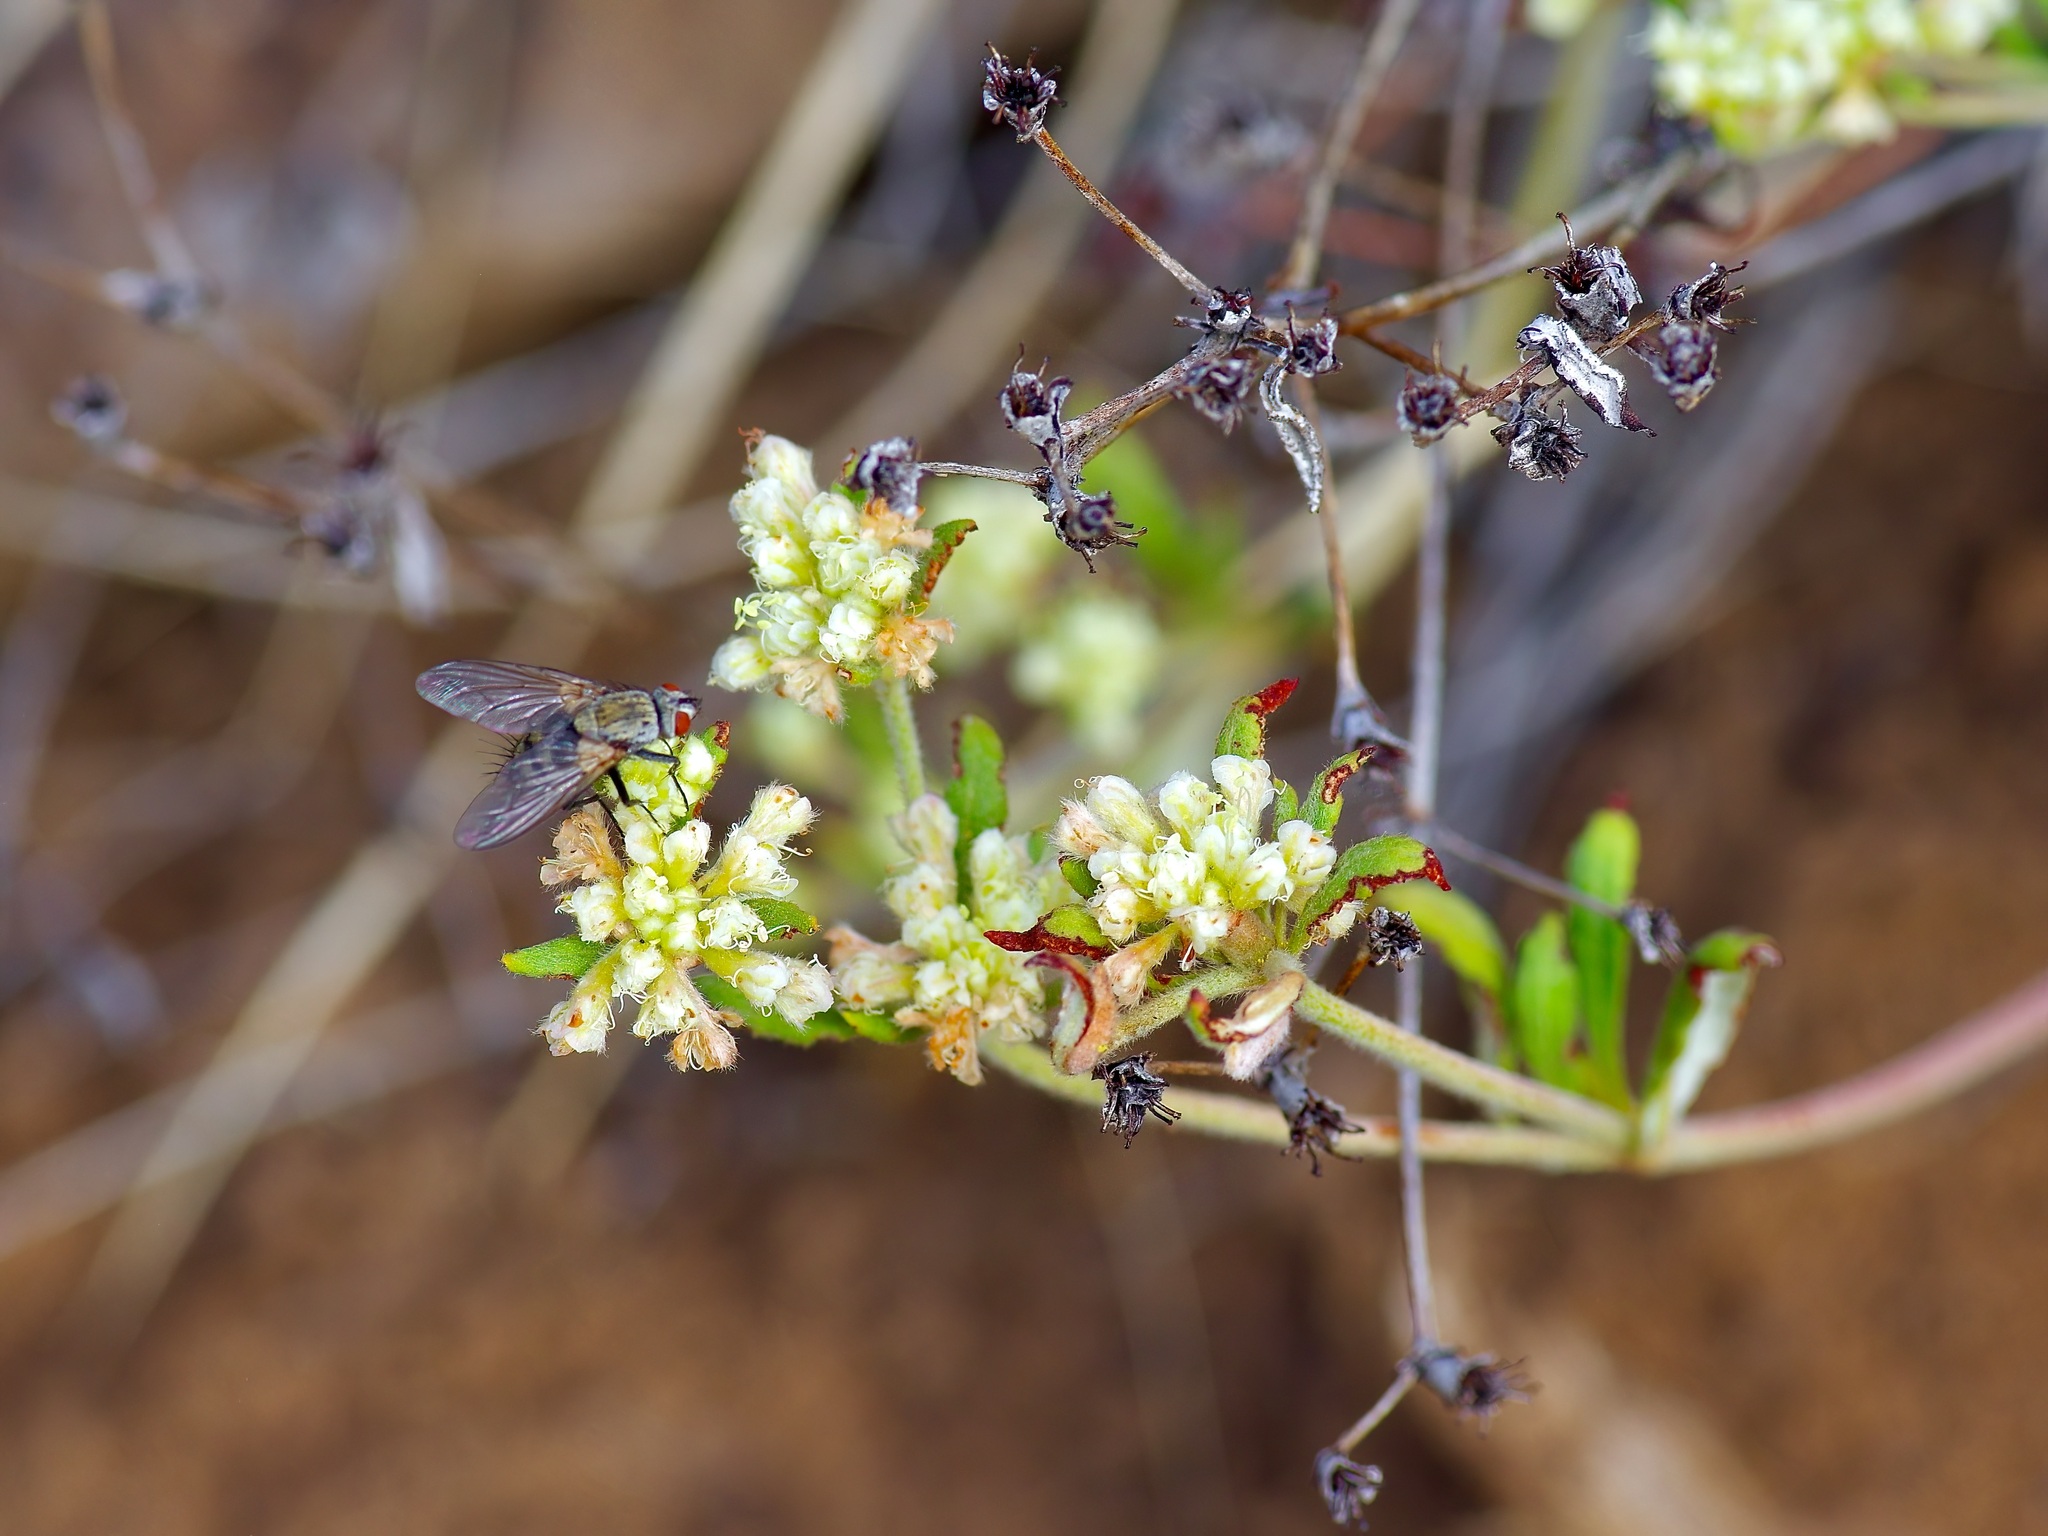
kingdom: Plantae
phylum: Tracheophyta
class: Magnoliopsida
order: Caryophyllales
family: Polygonaceae
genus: Eriogonum
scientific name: Eriogonum jamesii
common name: Antelope-sage
